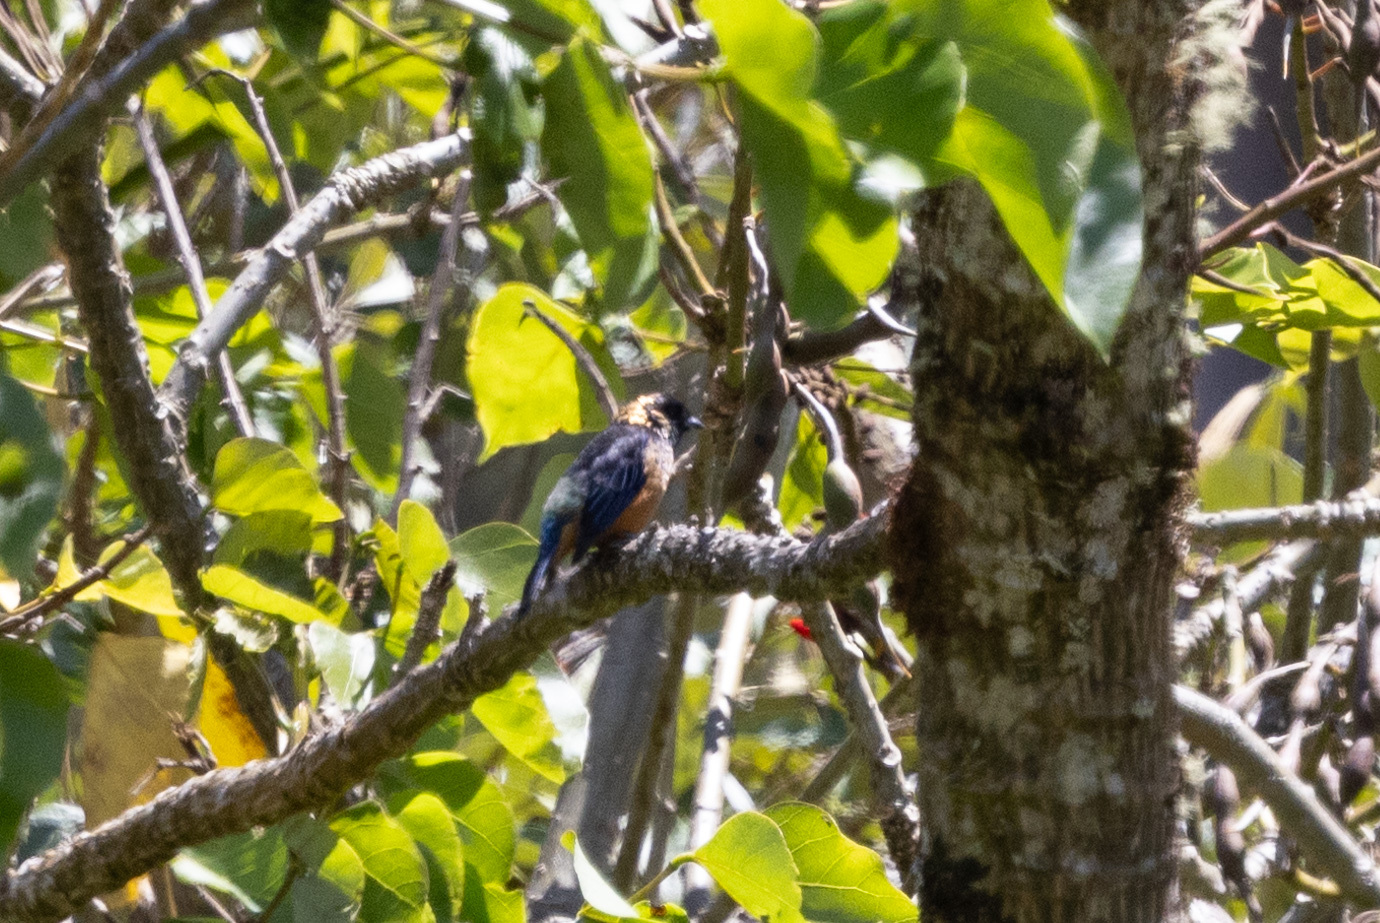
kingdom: Animalia
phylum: Chordata
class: Aves
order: Passeriformes
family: Thraupidae
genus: Tangara
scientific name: Tangara dowii
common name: Spangle-cheeked tanager
